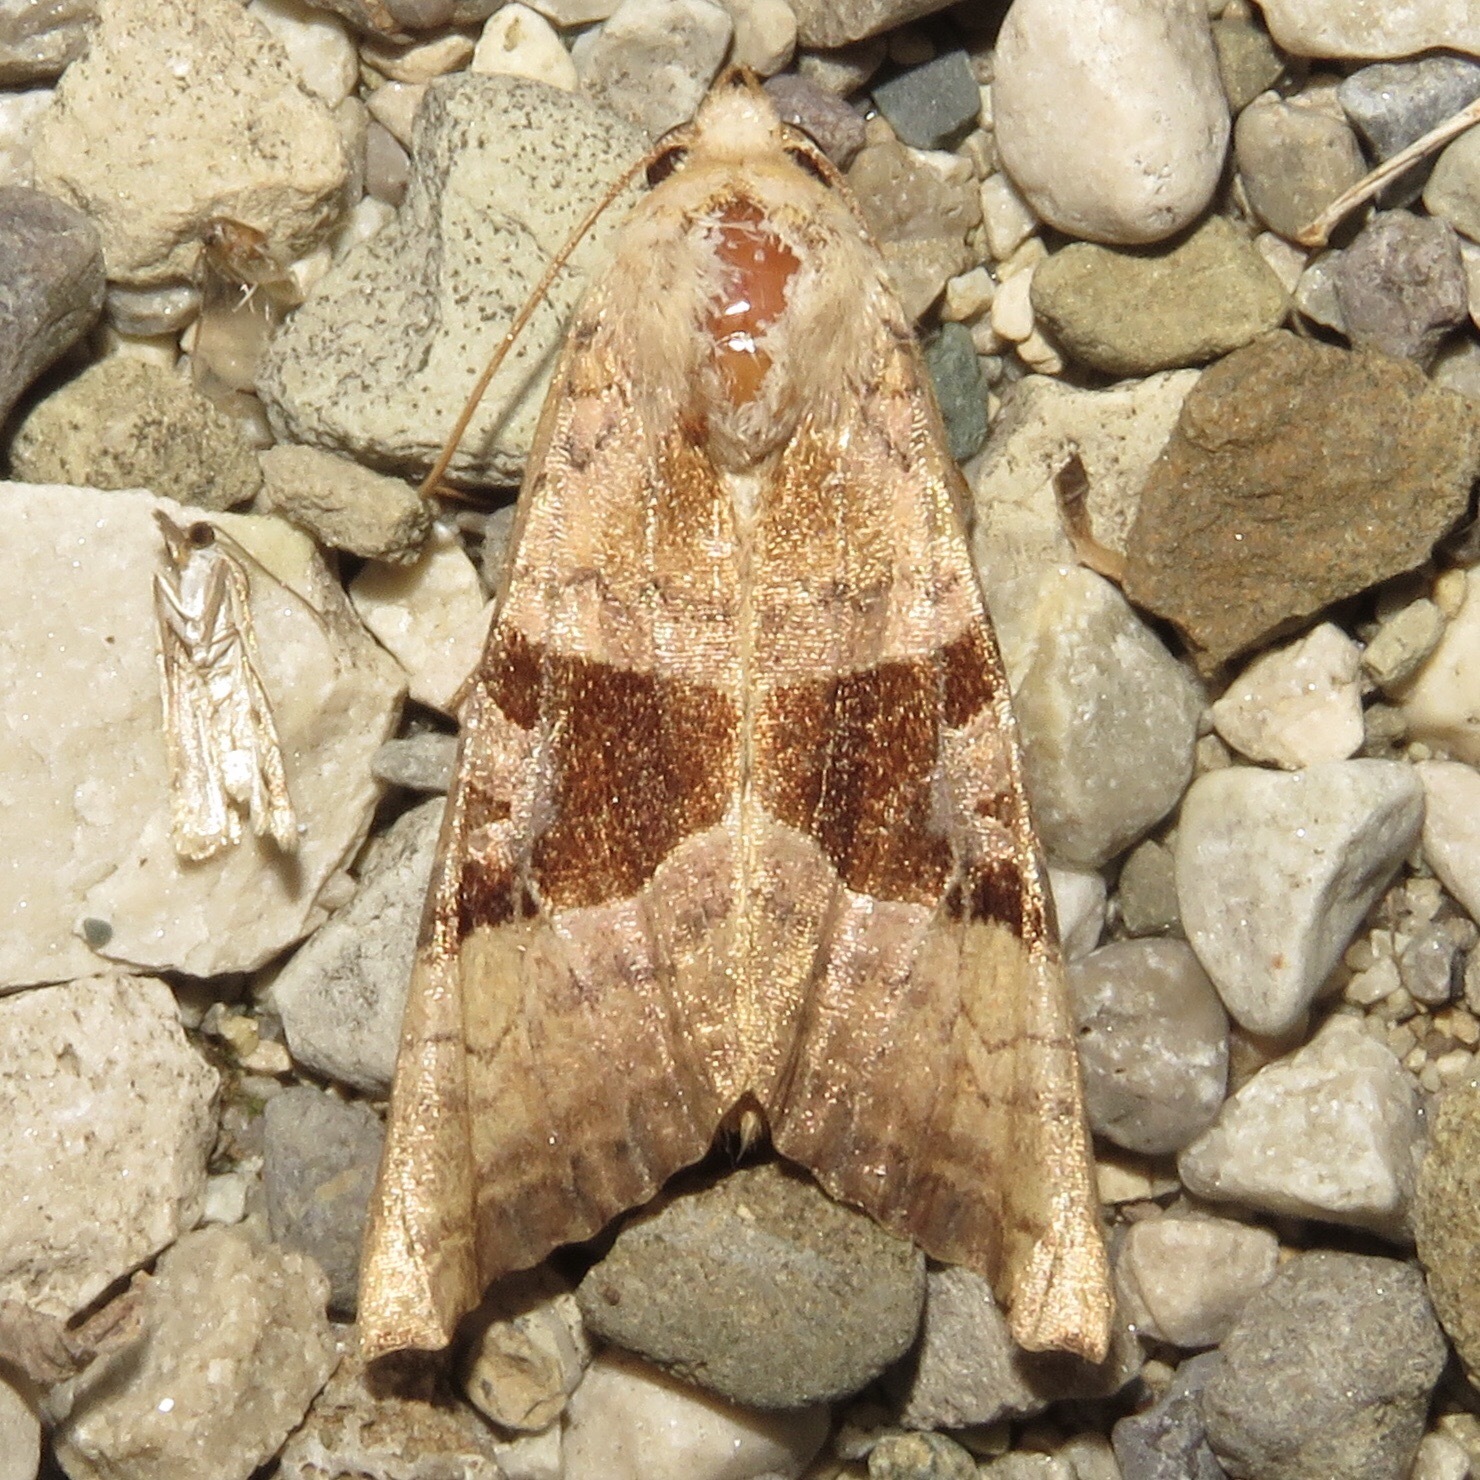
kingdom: Animalia
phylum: Arthropoda
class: Insecta
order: Lepidoptera
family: Noctuidae
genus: Phlogophora
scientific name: Phlogophora periculosa
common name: Brown angle shades
